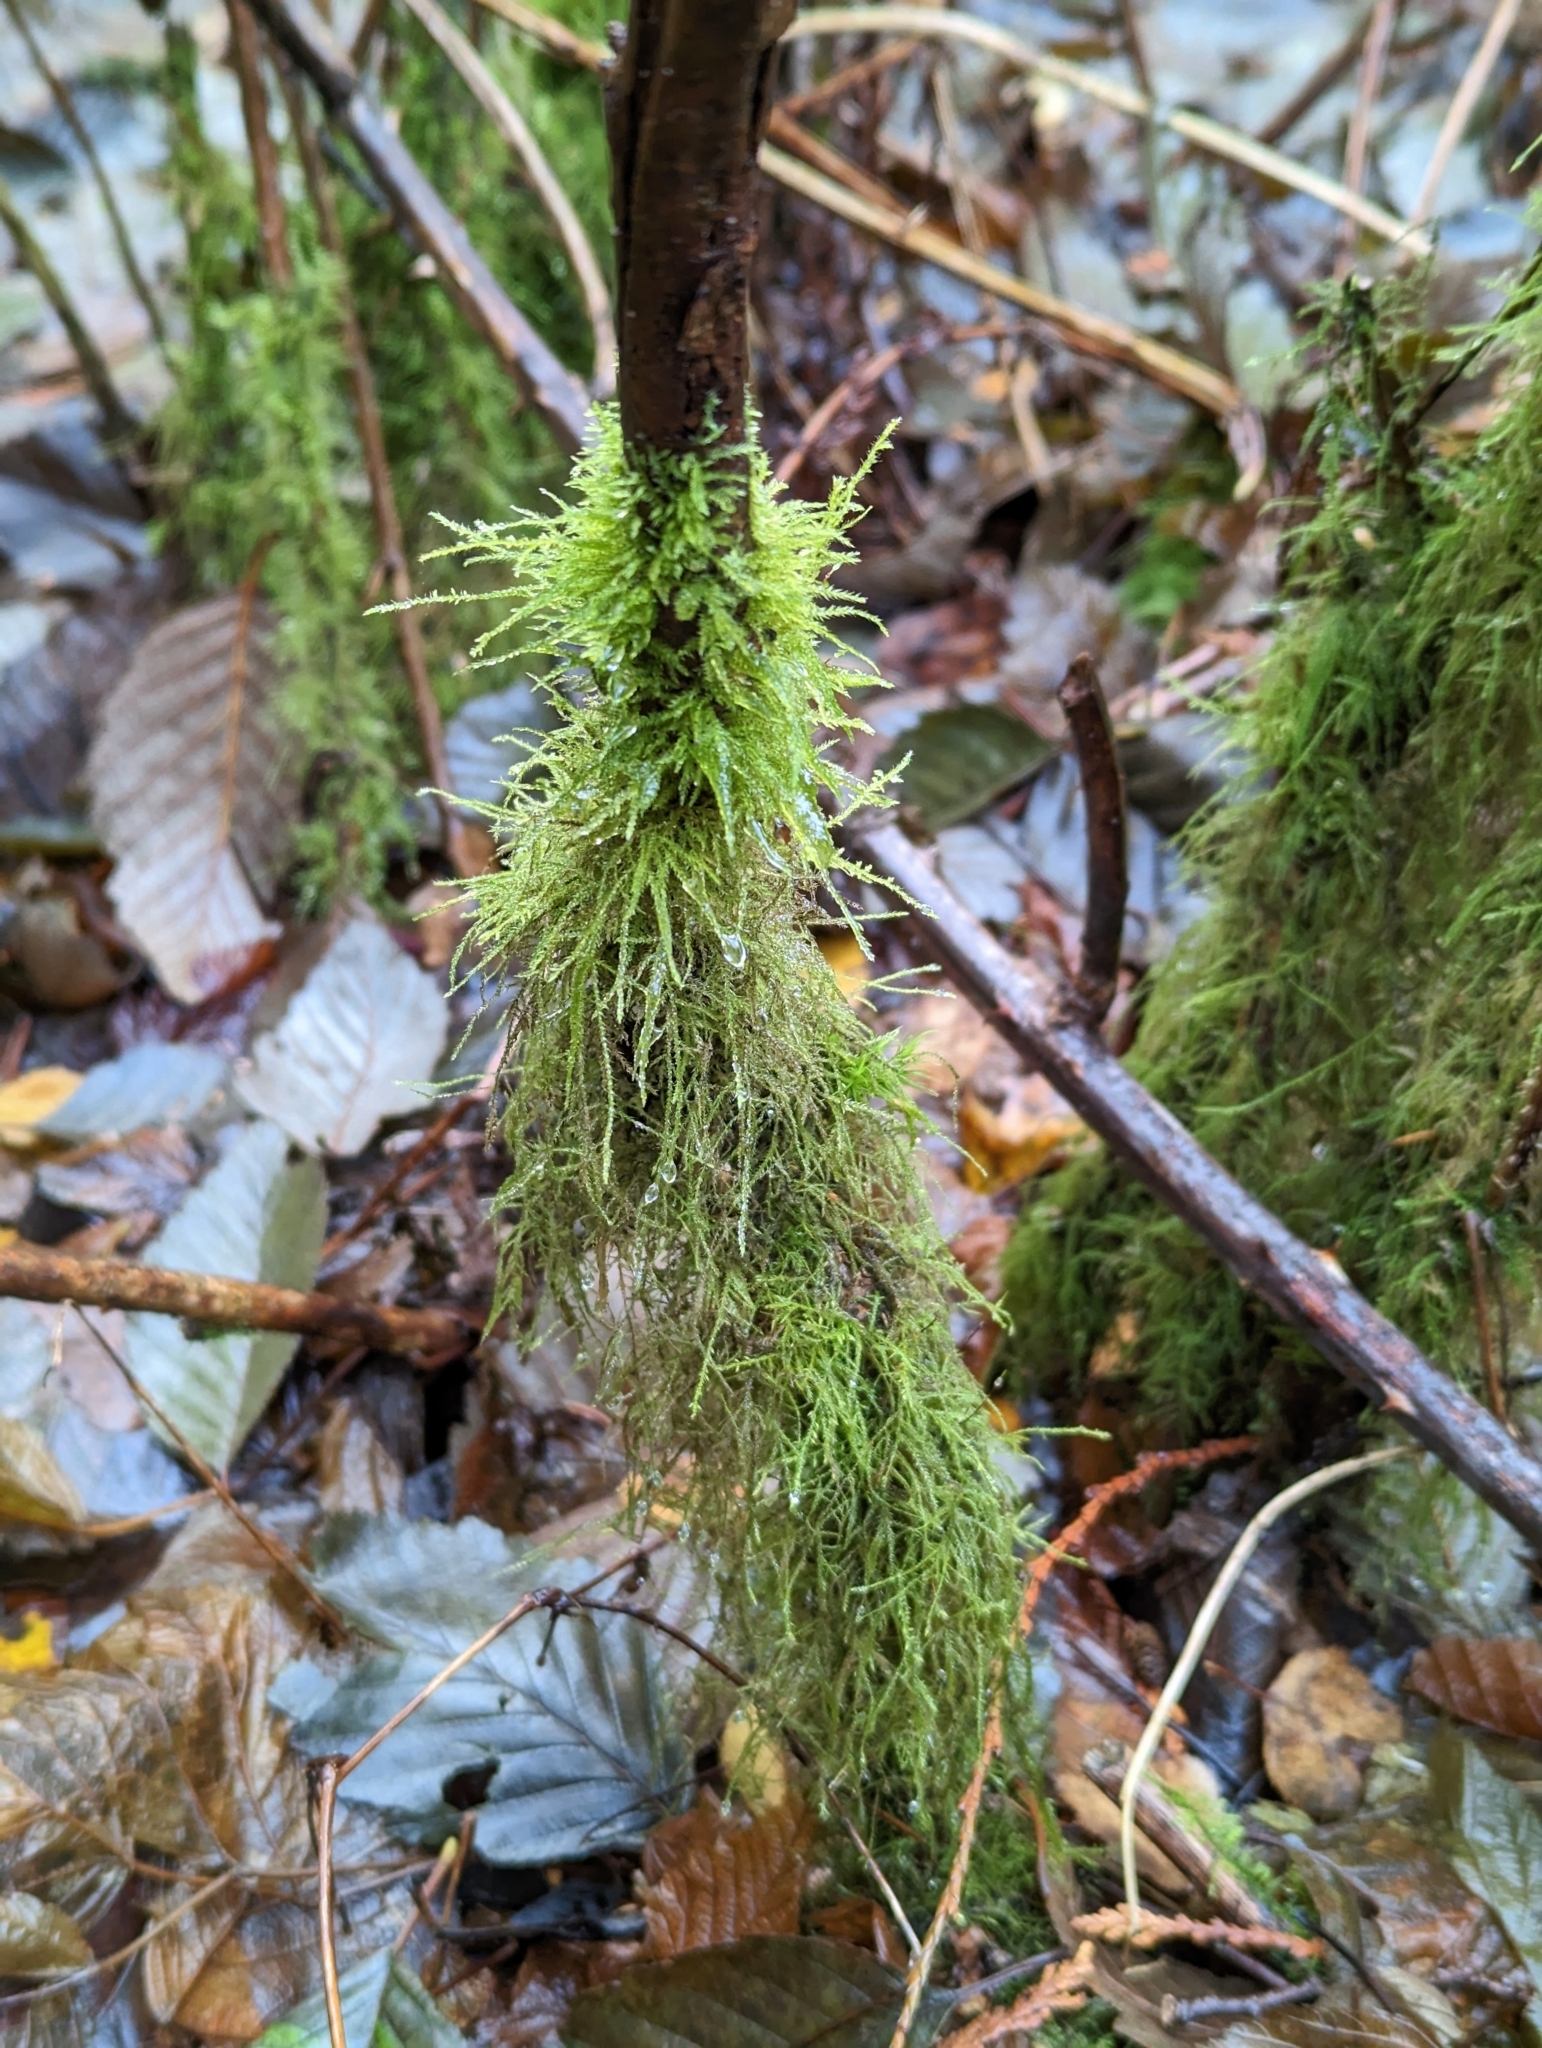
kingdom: Plantae
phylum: Bryophyta
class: Bryopsida
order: Hypnales
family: Lembophyllaceae
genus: Pseudisothecium
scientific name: Pseudisothecium stoloniferum
